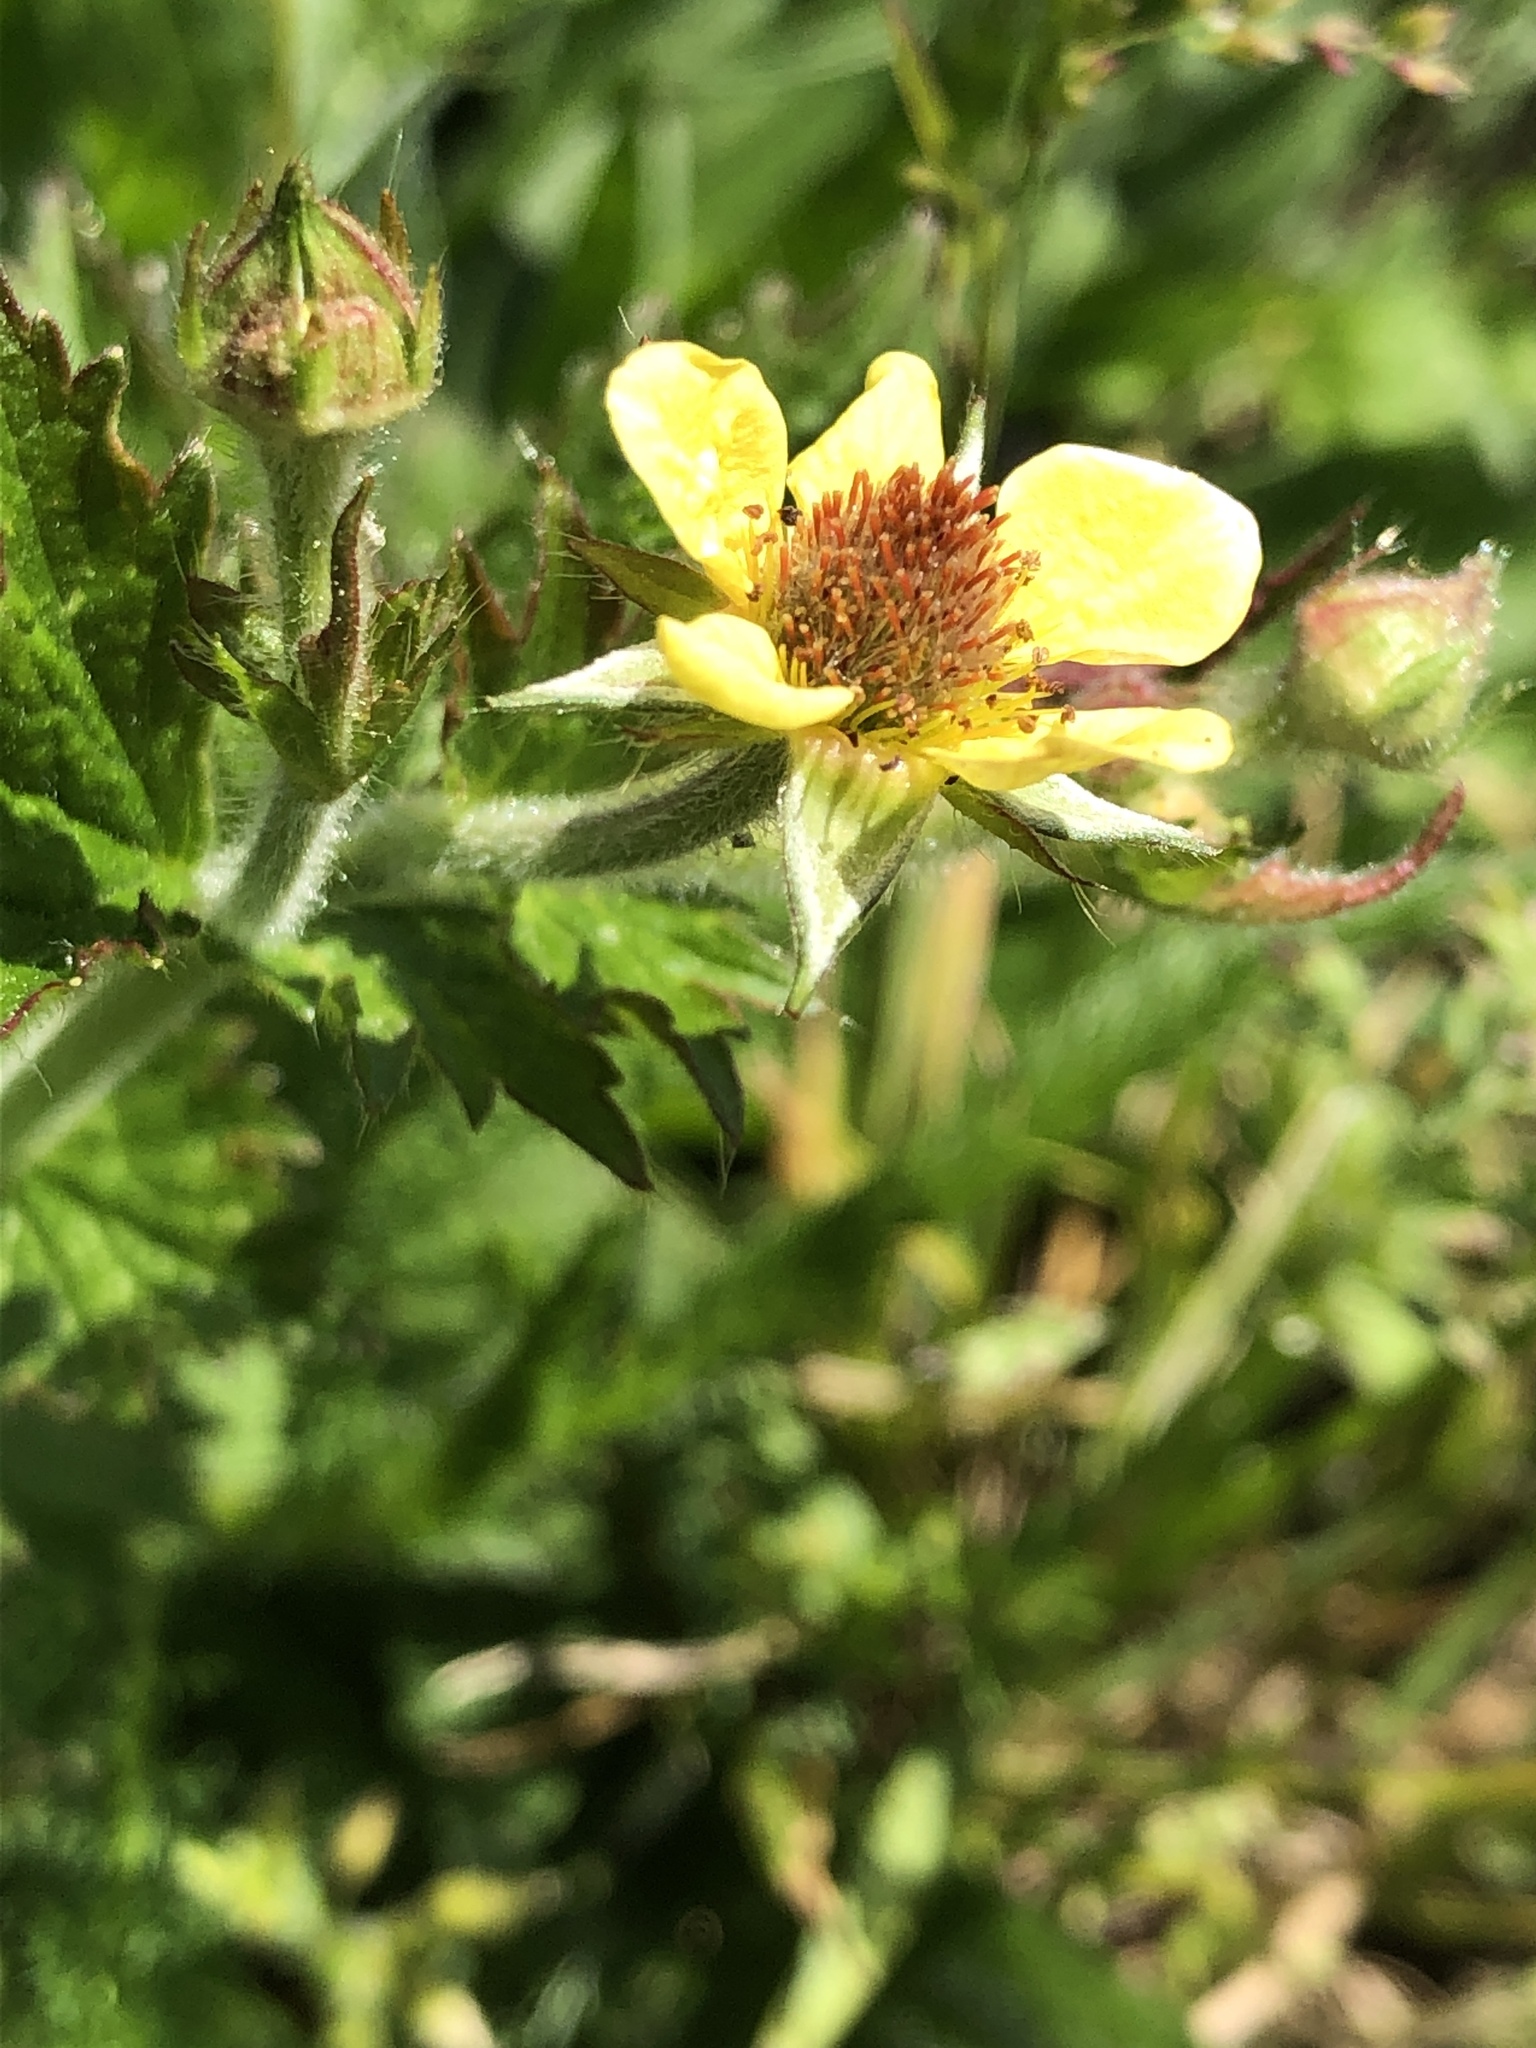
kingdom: Plantae
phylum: Tracheophyta
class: Magnoliopsida
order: Rosales
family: Rosaceae
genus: Geum
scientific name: Geum urbanum
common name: Wood avens
